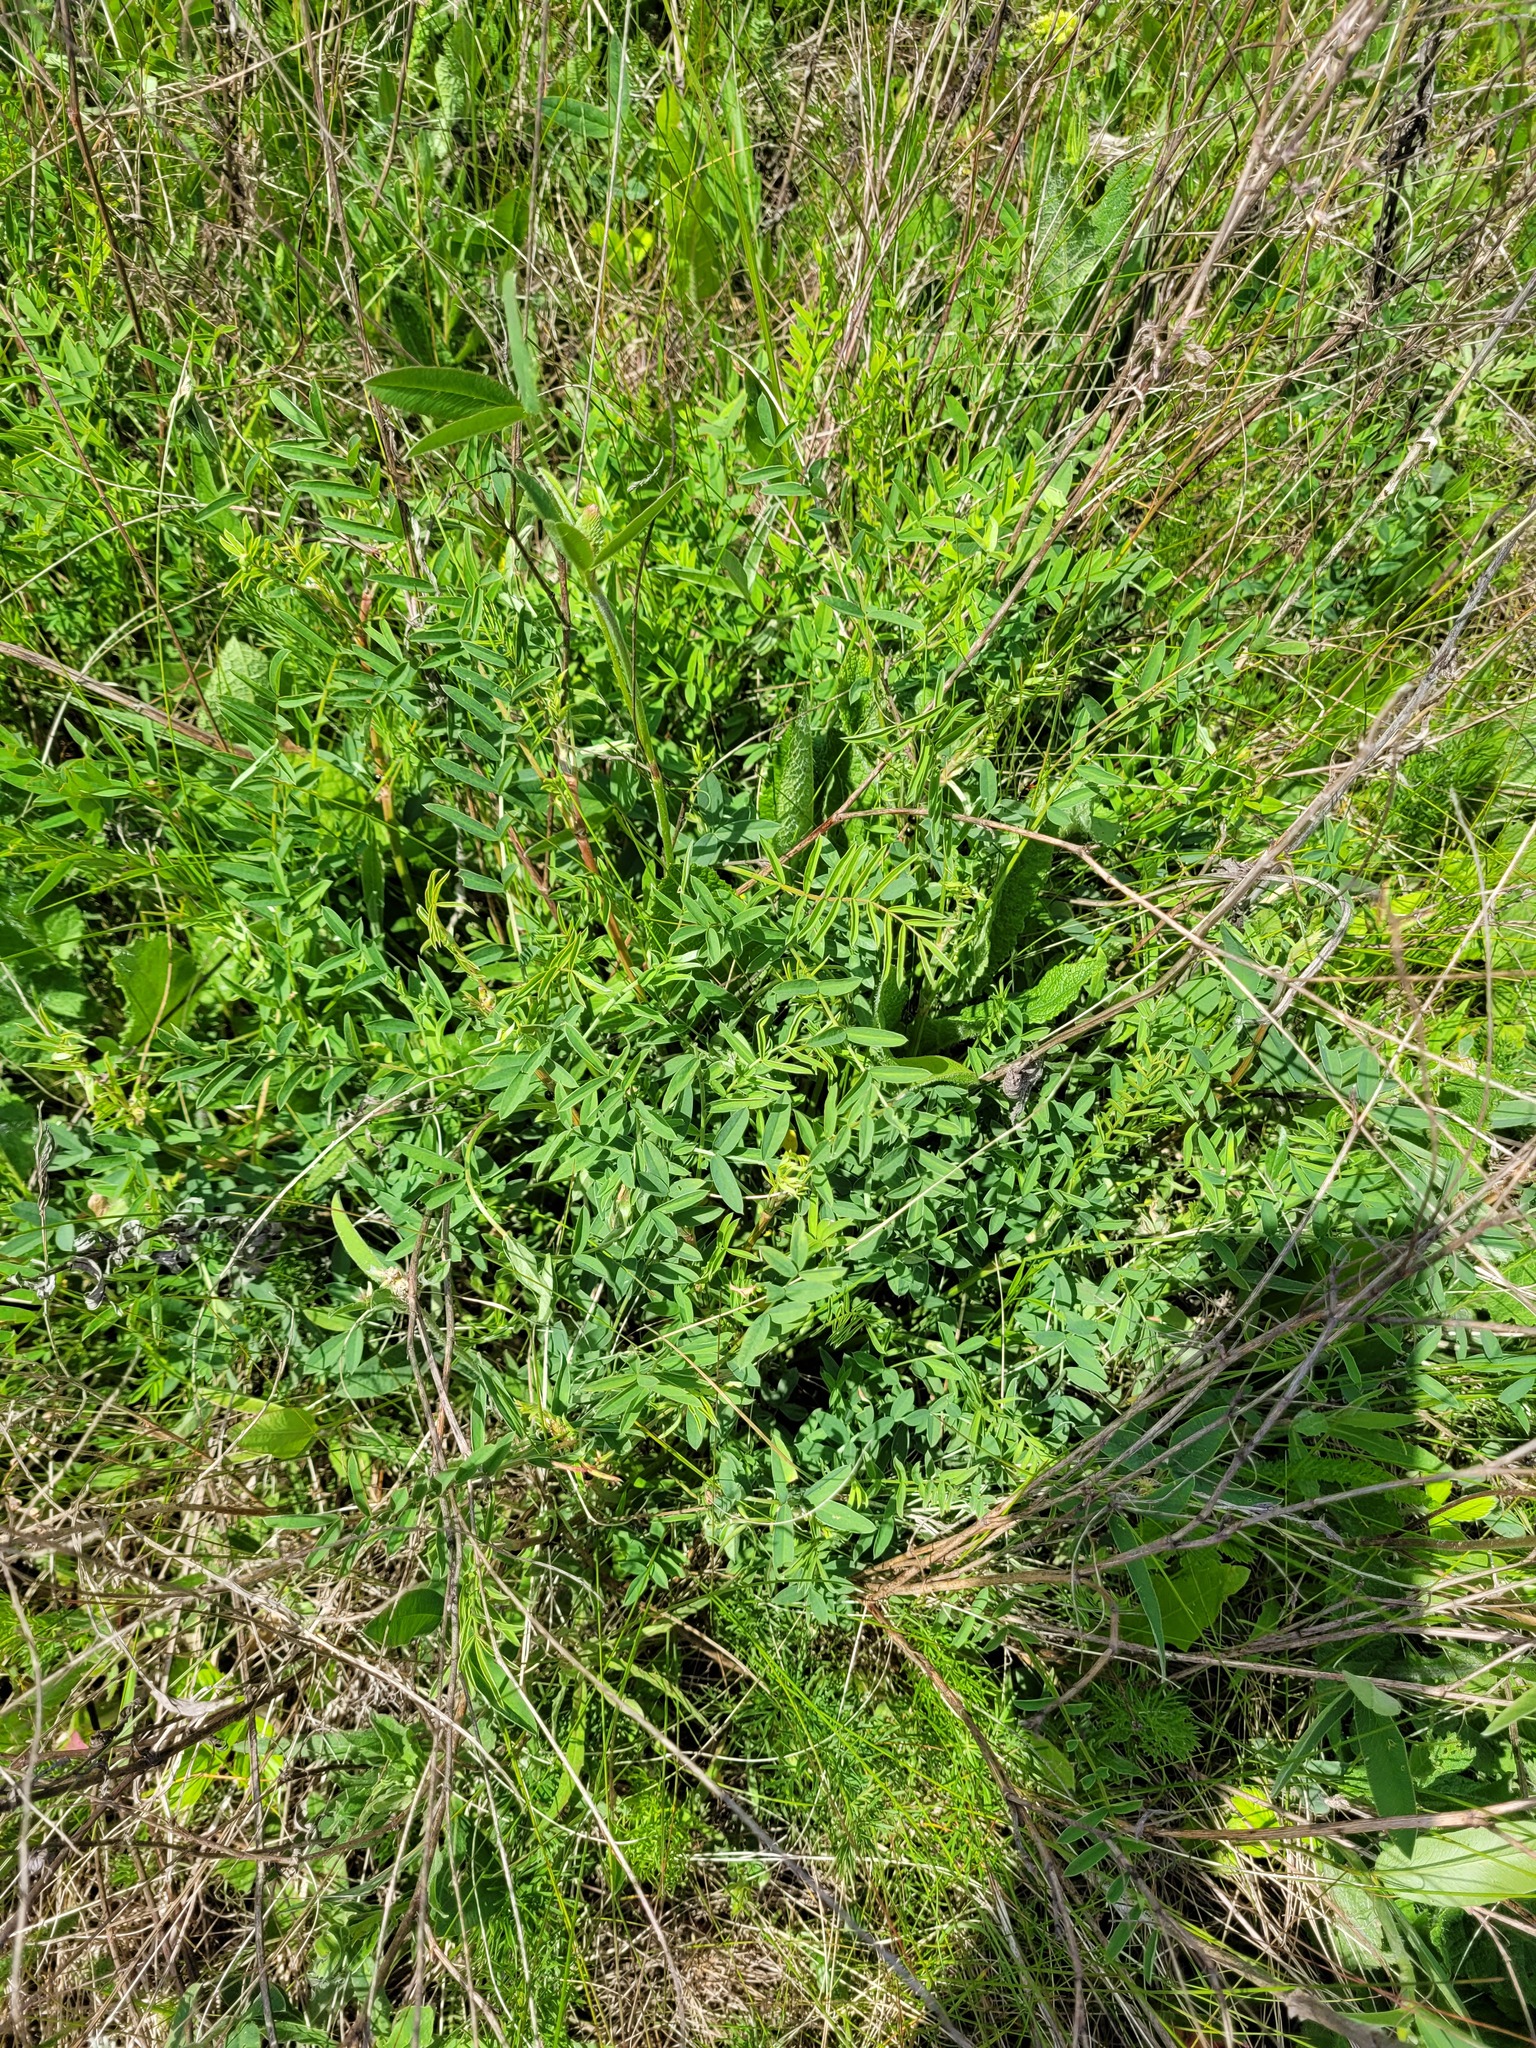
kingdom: Plantae
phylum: Tracheophyta
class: Magnoliopsida
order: Fabales
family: Fabaceae
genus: Onobrychis
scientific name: Onobrychis viciifolia
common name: Sainfoin
